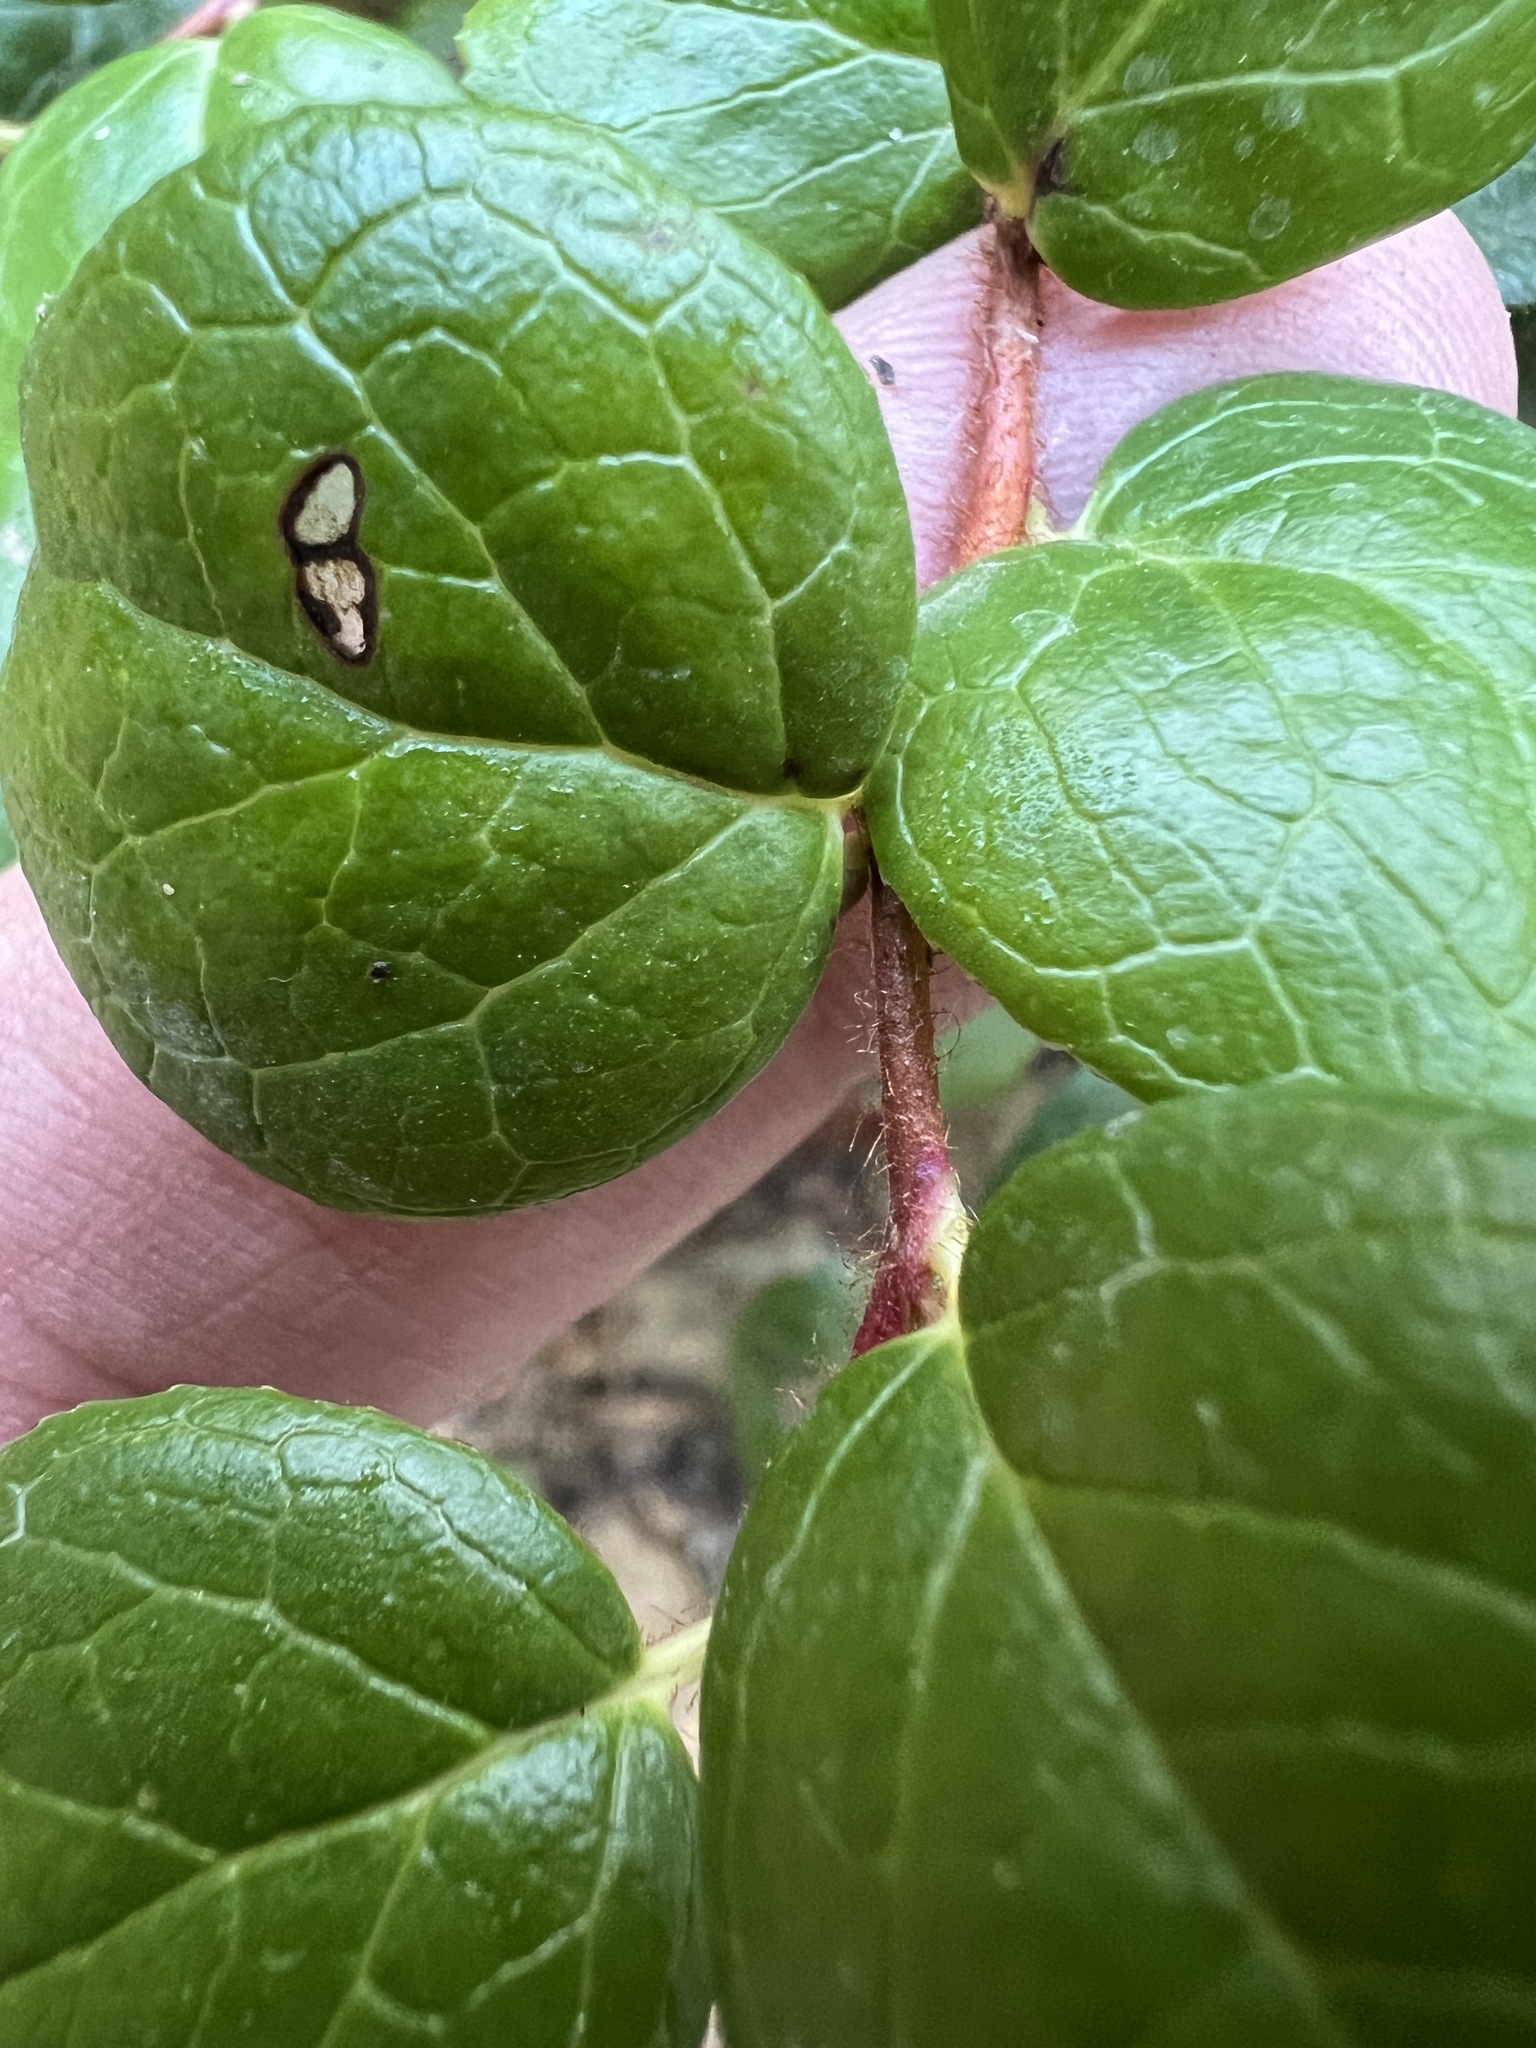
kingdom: Plantae
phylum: Tracheophyta
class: Magnoliopsida
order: Ericales
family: Ericaceae
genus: Gaultheria
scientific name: Gaultheria ovatifolia
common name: Oregon wintergreen
